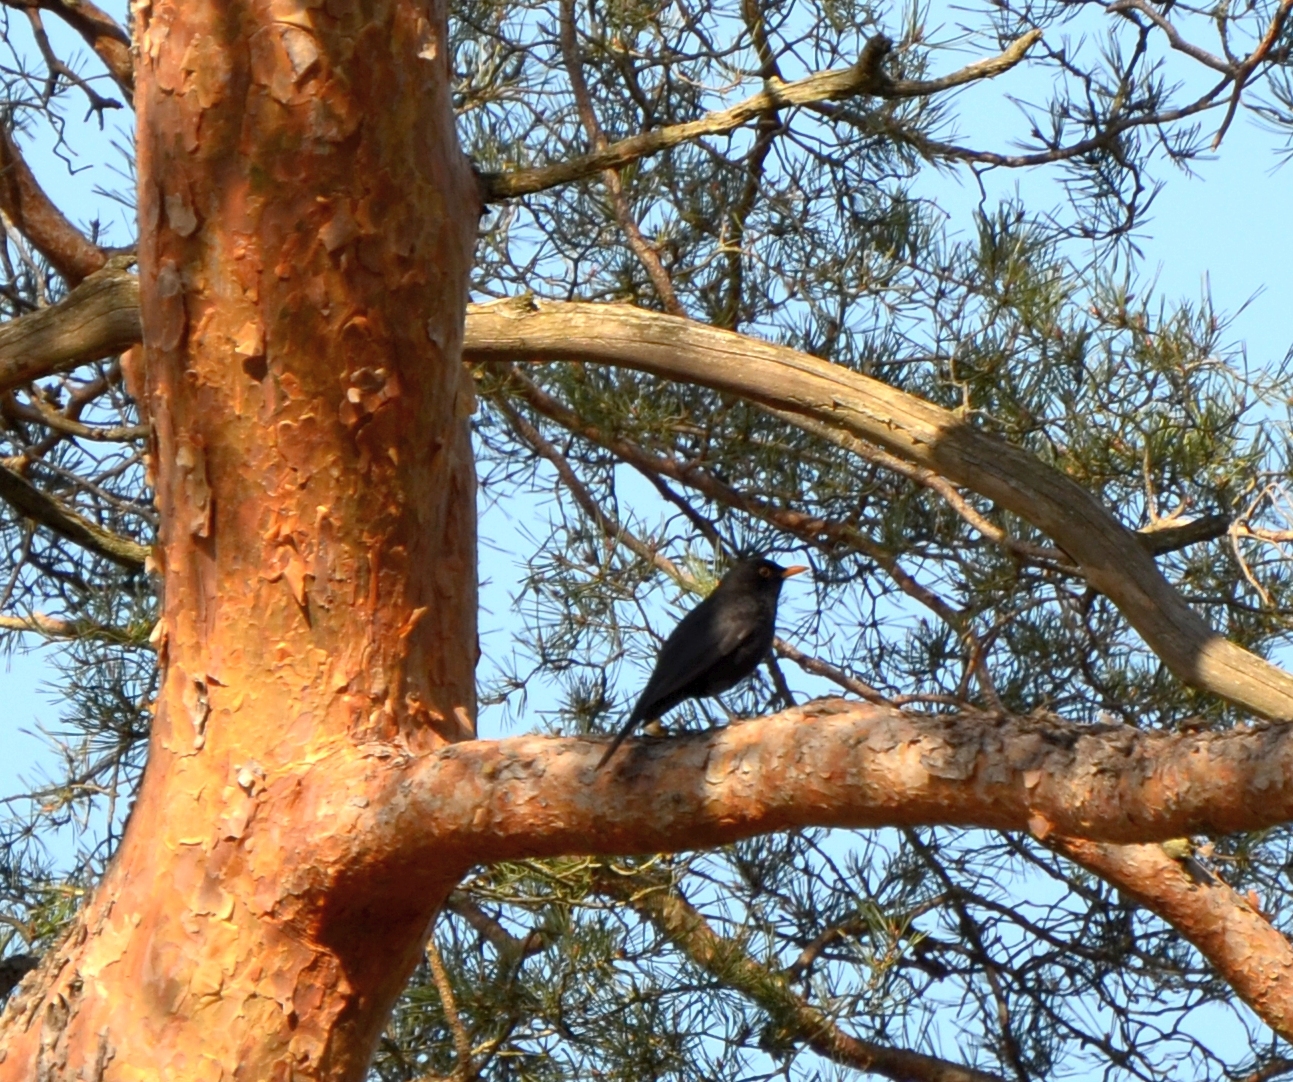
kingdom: Animalia
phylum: Chordata
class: Aves
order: Passeriformes
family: Turdidae
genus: Turdus
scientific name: Turdus merula
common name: Common blackbird
